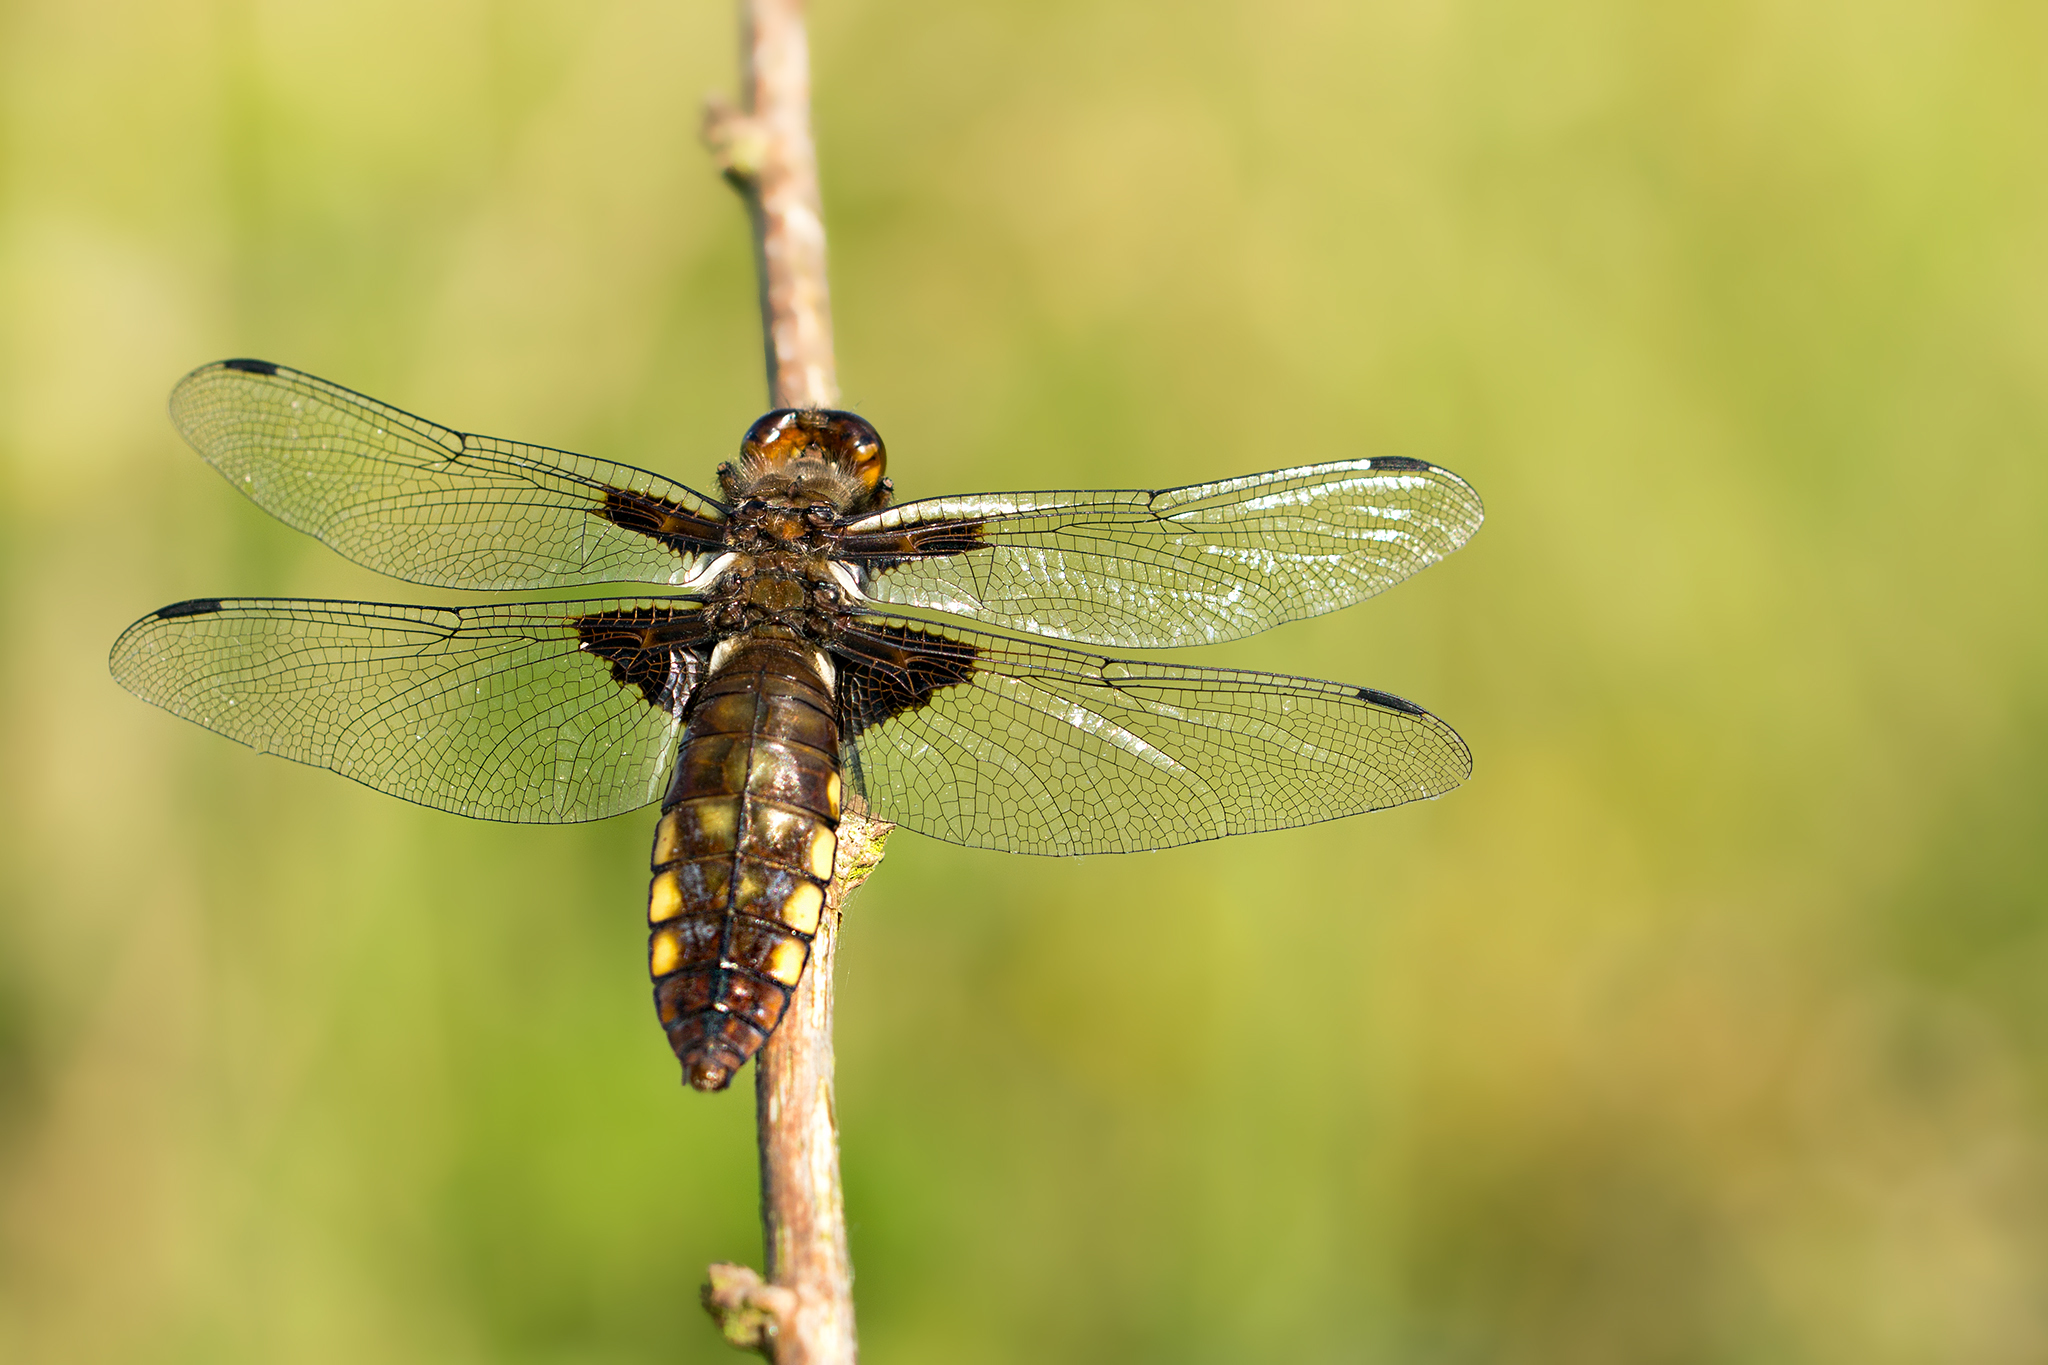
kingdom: Animalia
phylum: Arthropoda
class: Insecta
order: Odonata
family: Libellulidae
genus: Libellula
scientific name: Libellula depressa
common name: Broad-bodied chaser
